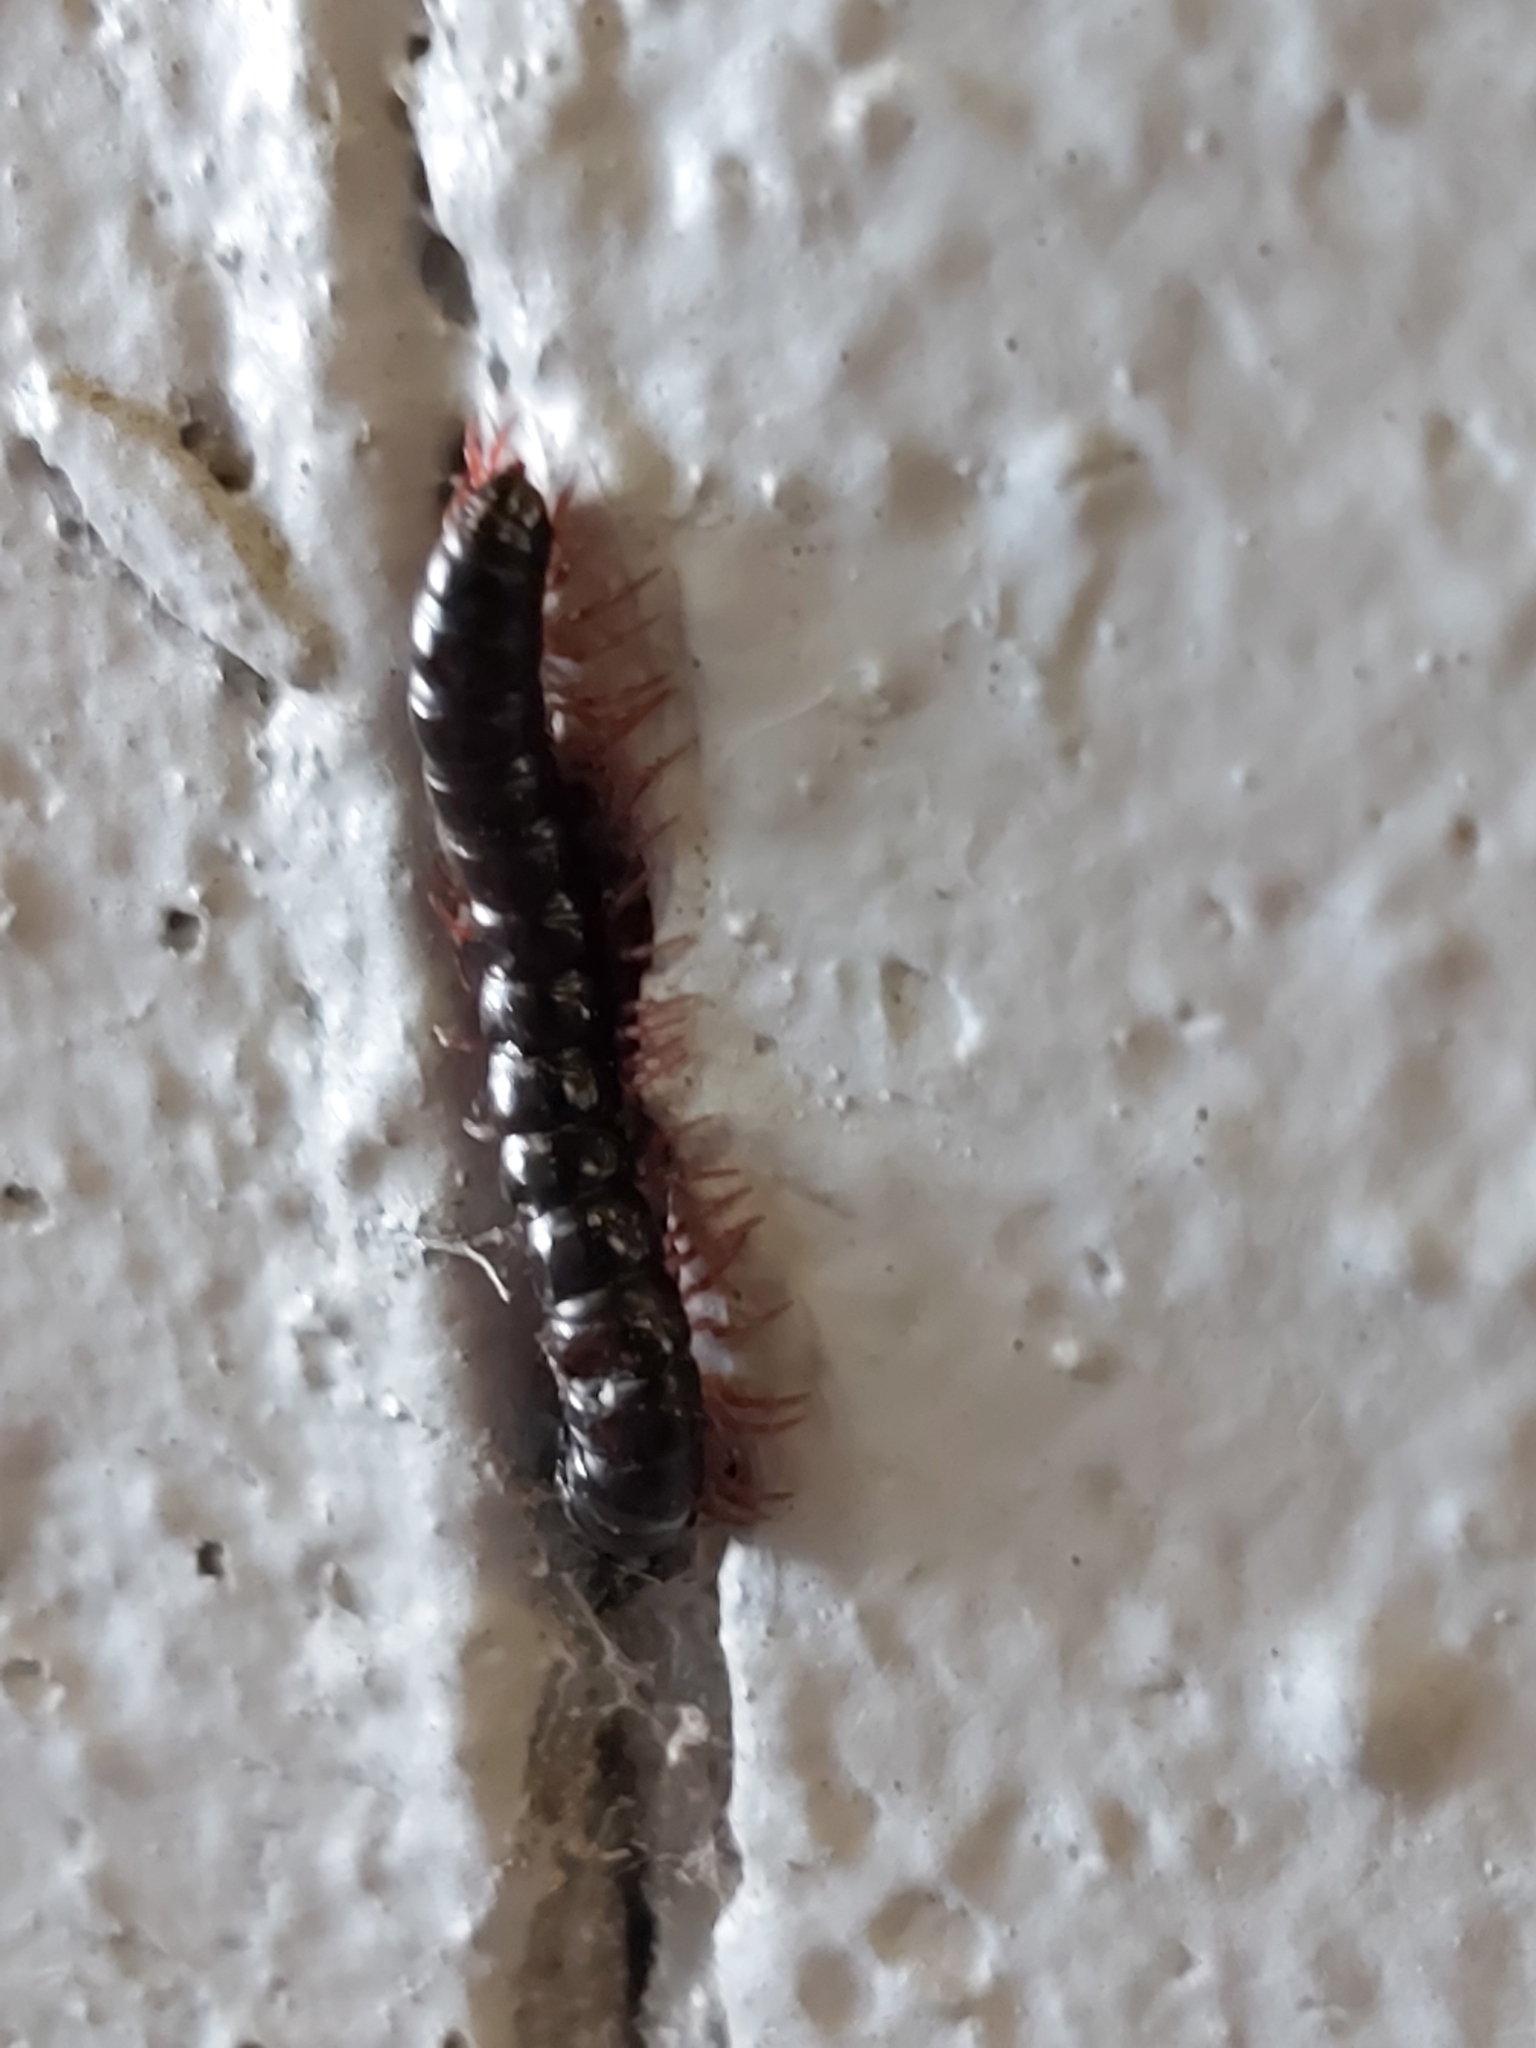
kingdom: Animalia
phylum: Arthropoda
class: Diplopoda
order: Polydesmida
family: Paradoxosomatidae
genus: Heterocladosoma
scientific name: Heterocladosoma
